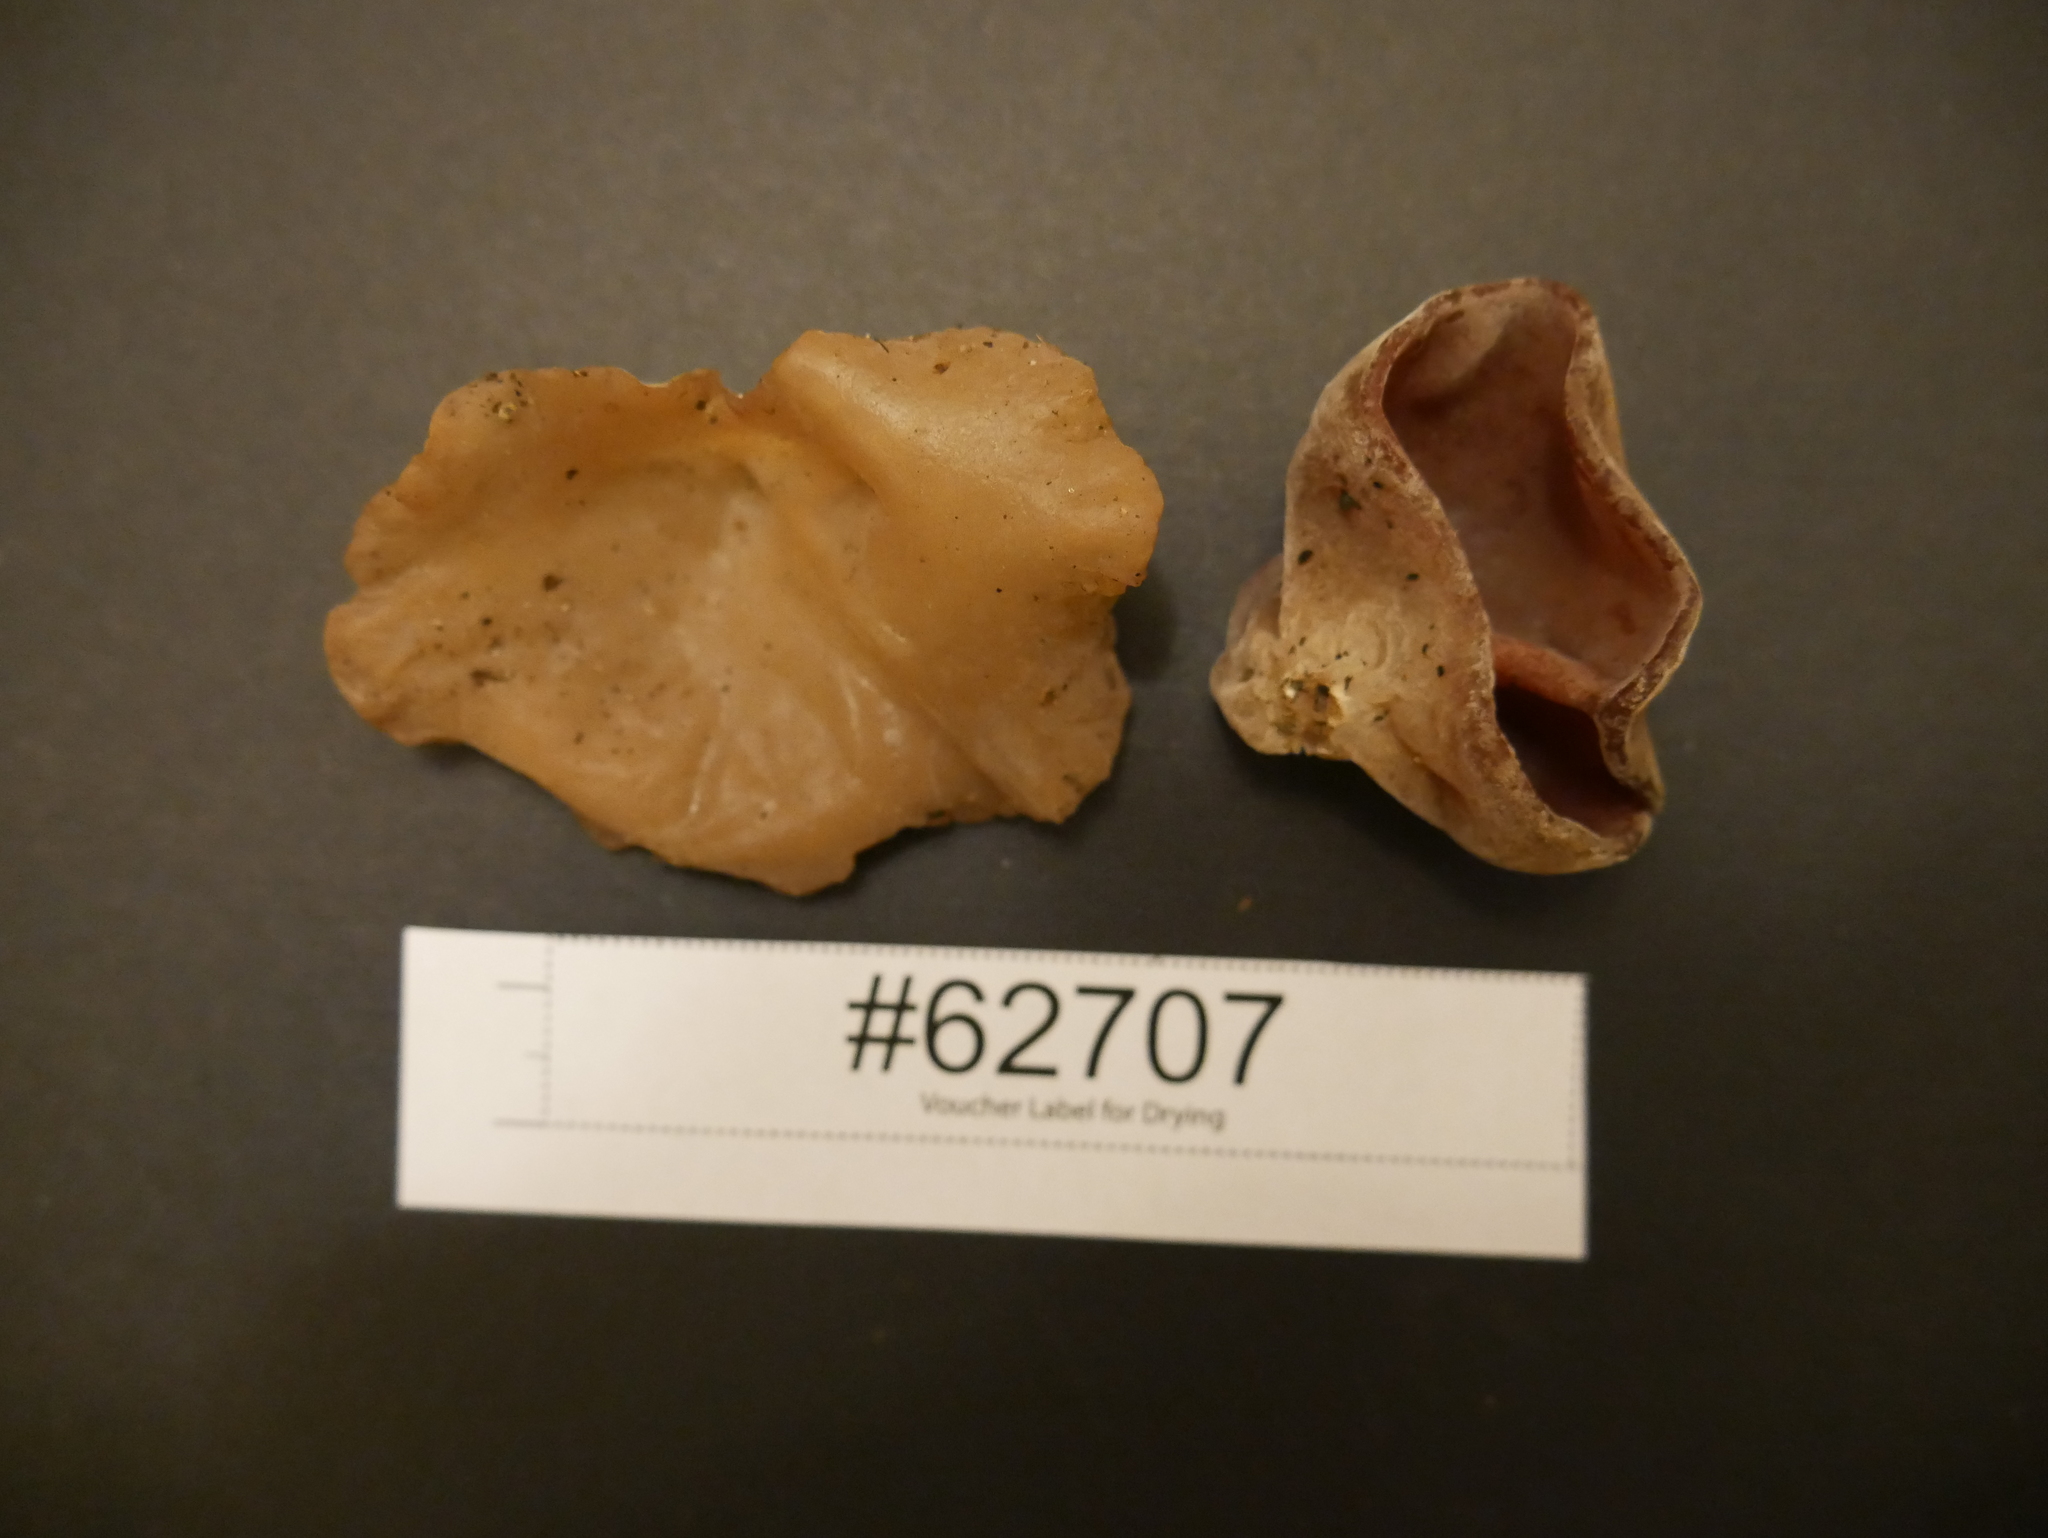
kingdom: Fungi
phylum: Basidiomycota
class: Agaricomycetes
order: Auriculariales
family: Auriculariaceae
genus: Auricularia
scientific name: Auricularia fuscosuccinea
